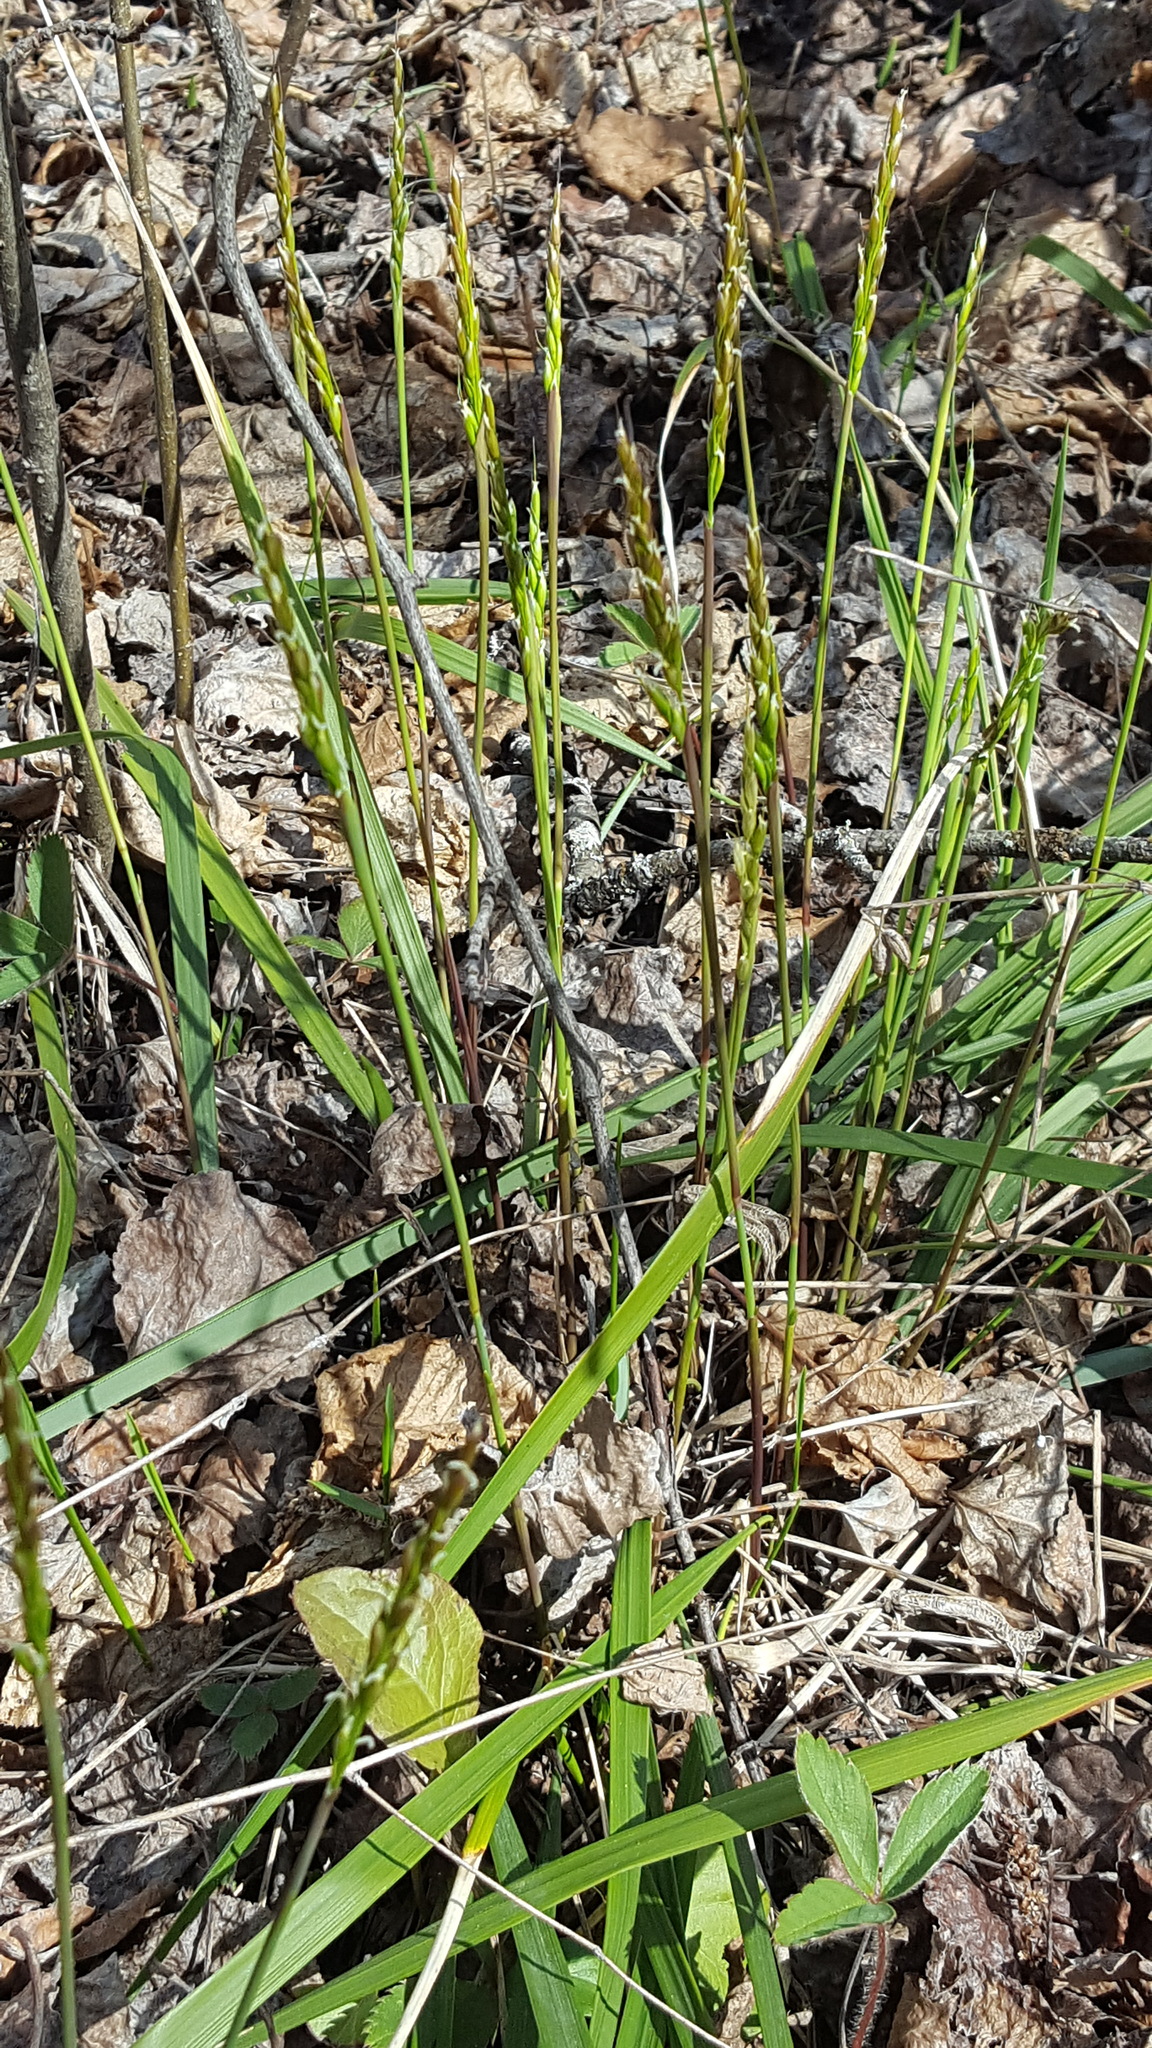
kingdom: Plantae
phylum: Tracheophyta
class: Liliopsida
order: Poales
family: Poaceae
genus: Oryzopsis
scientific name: Oryzopsis asperifolia
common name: Rough-leaved mountain rice
